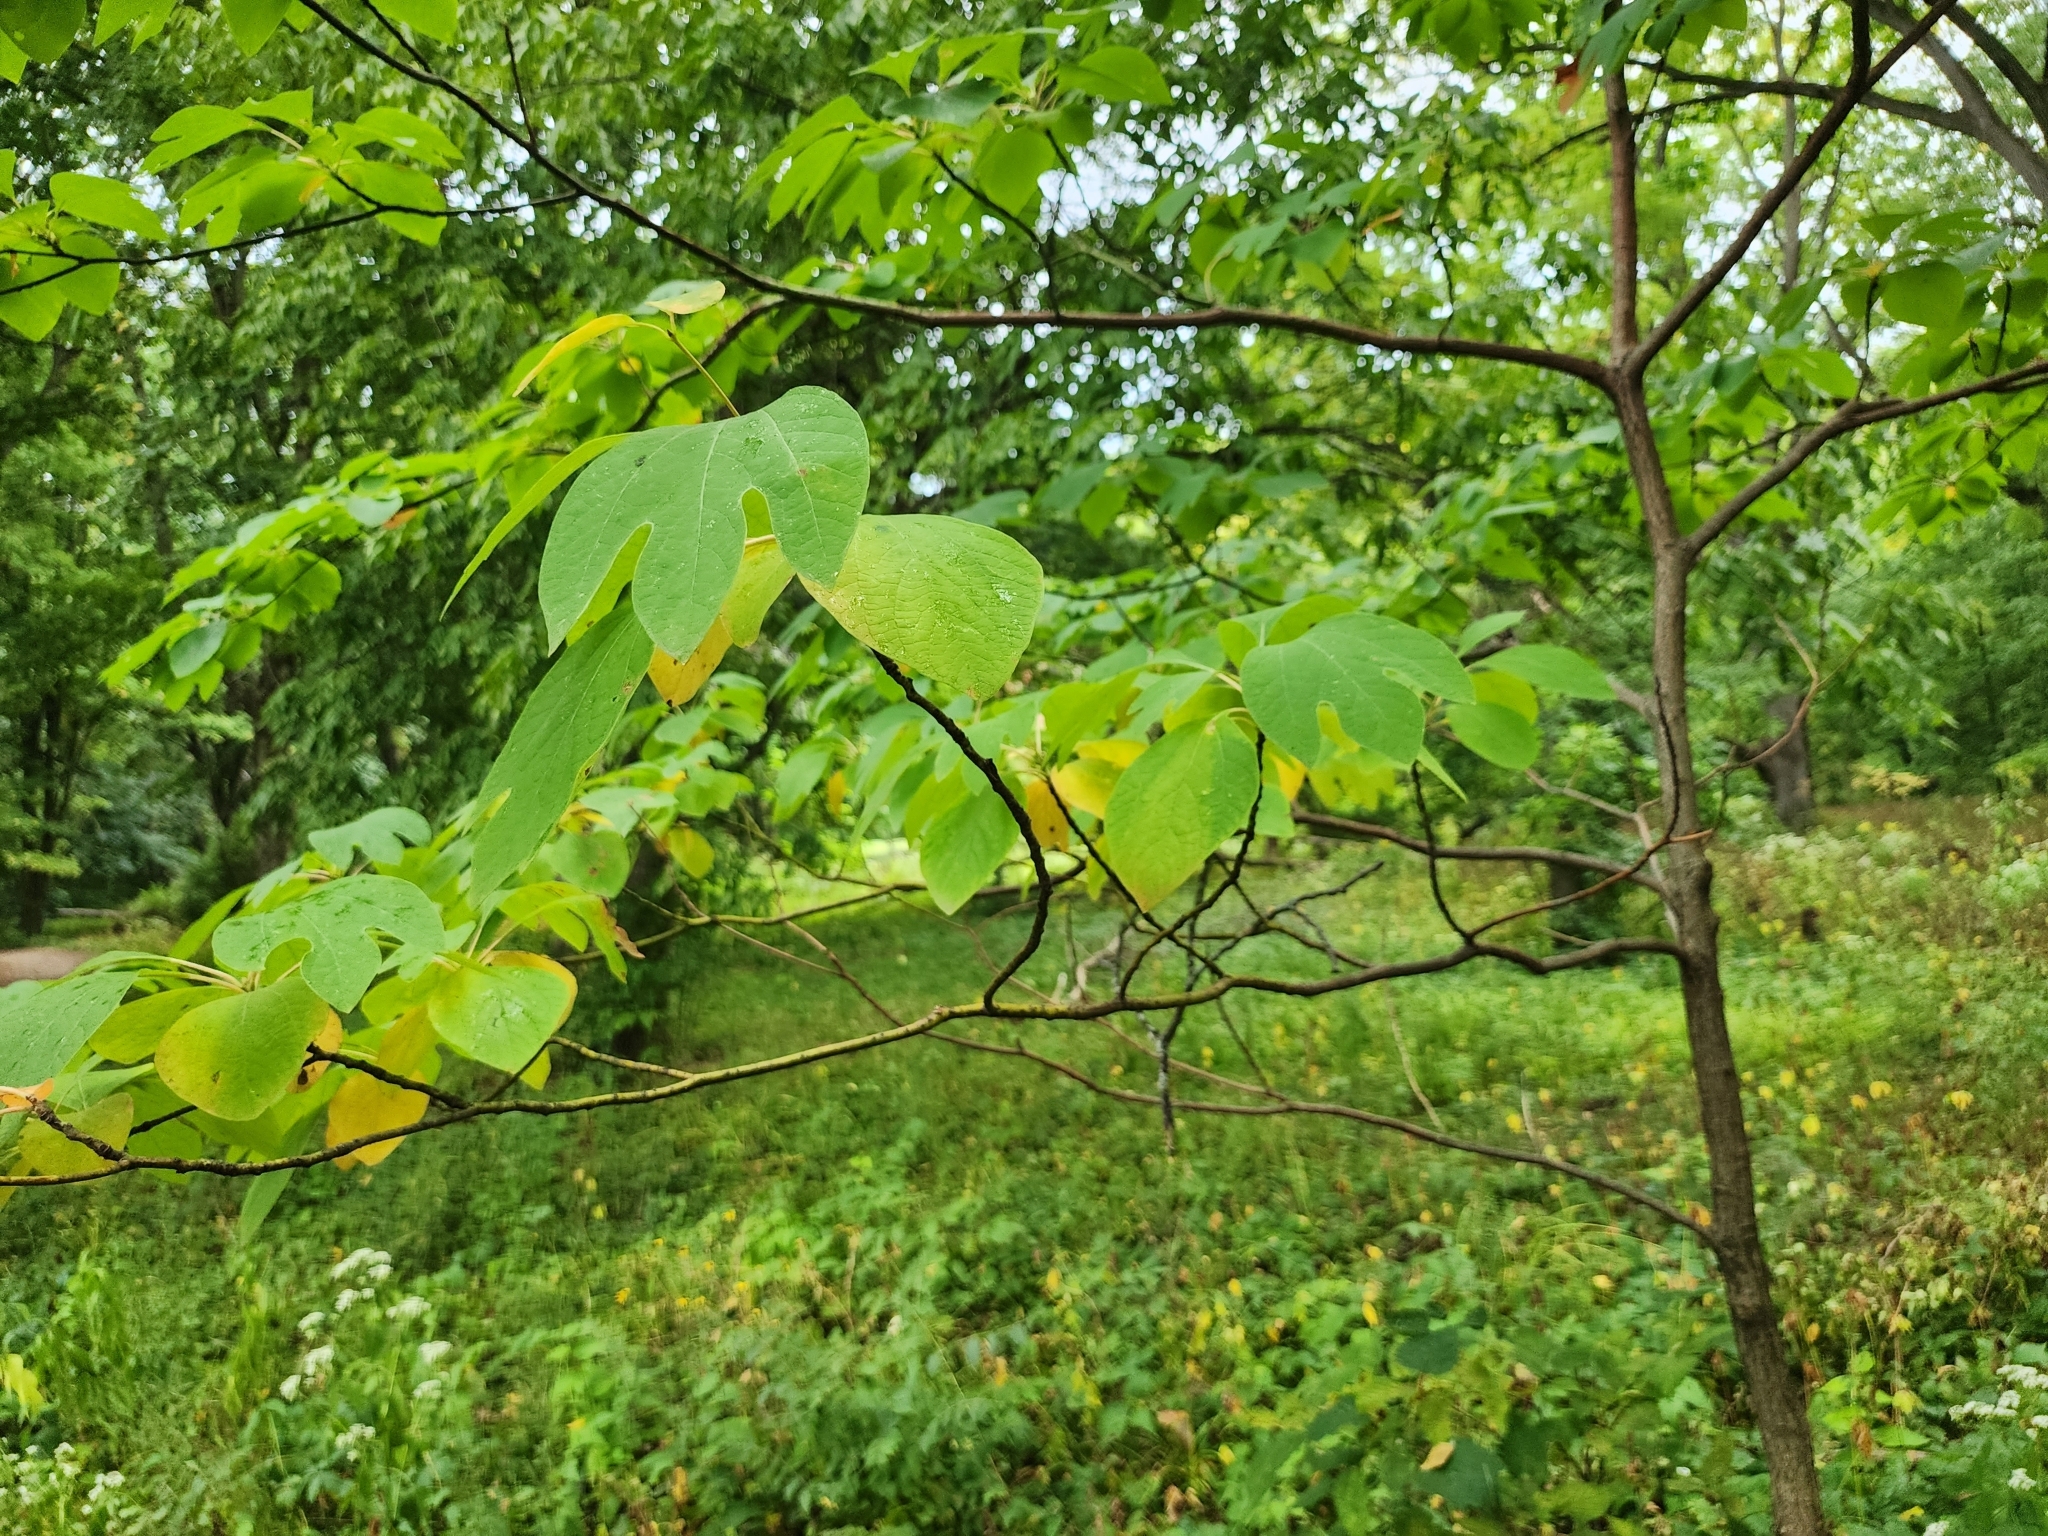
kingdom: Plantae
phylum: Tracheophyta
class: Magnoliopsida
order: Laurales
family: Lauraceae
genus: Sassafras
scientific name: Sassafras albidum
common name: Sassafras
